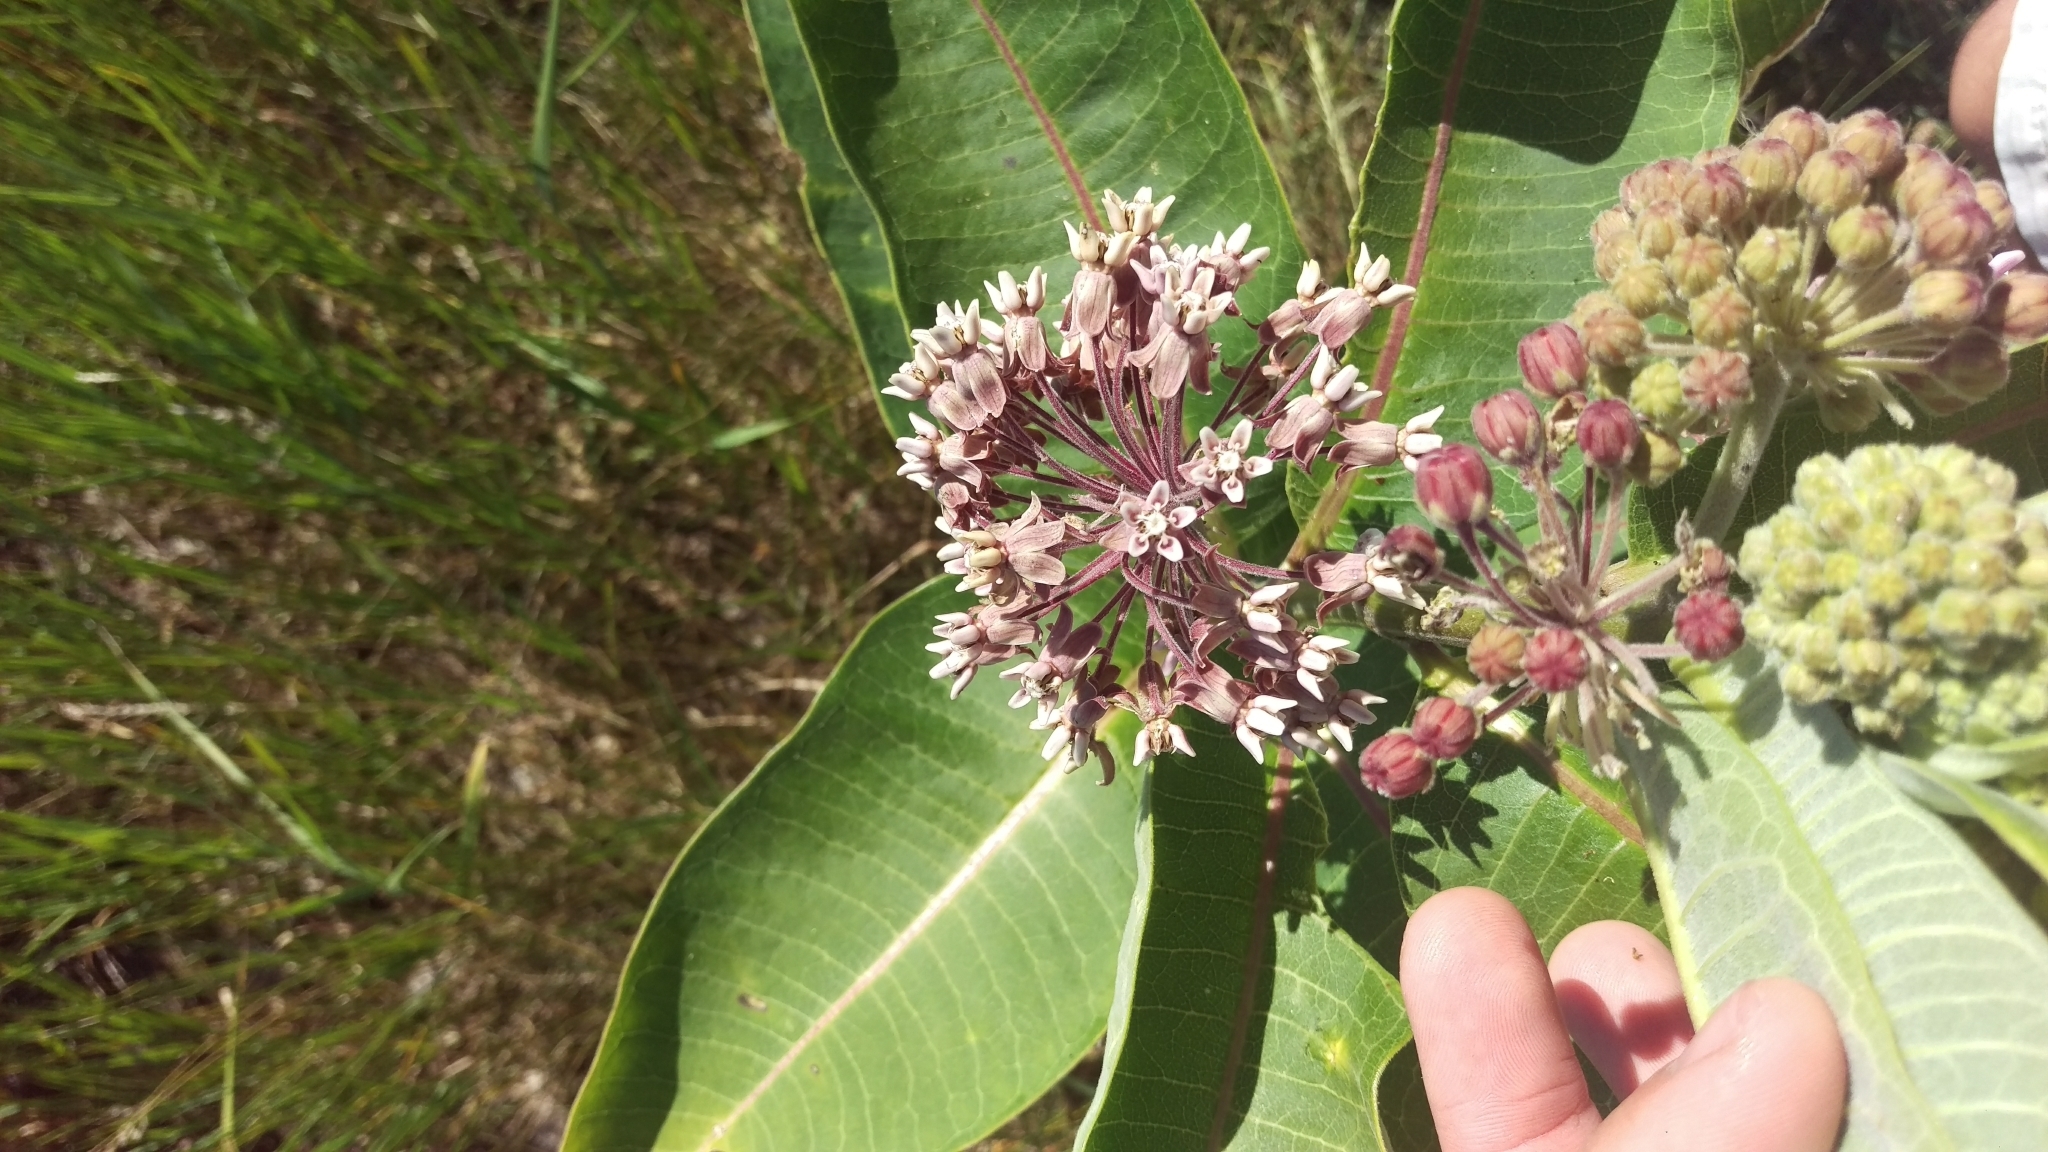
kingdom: Plantae
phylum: Tracheophyta
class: Magnoliopsida
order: Gentianales
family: Apocynaceae
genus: Asclepias
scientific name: Asclepias syriaca
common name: Common milkweed
